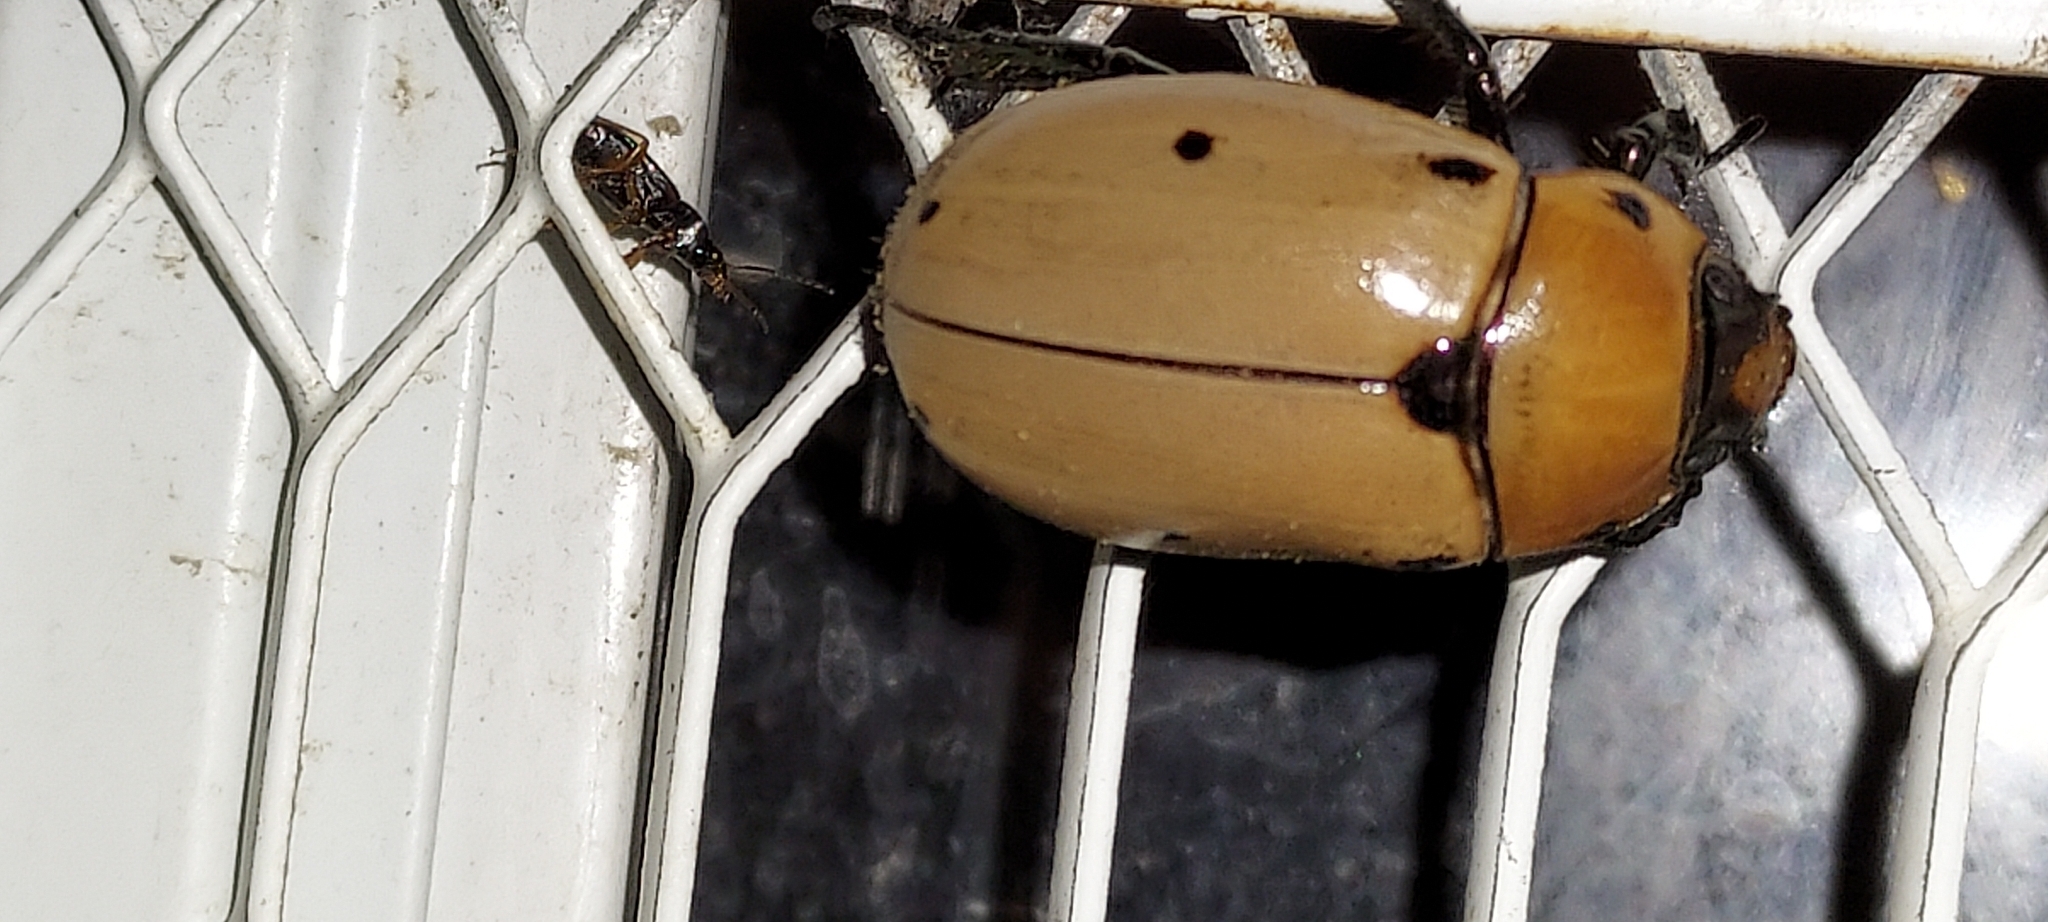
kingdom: Animalia
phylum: Arthropoda
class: Insecta
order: Coleoptera
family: Scarabaeidae
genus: Pelidnota
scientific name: Pelidnota punctata
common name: Grapevine beetle
